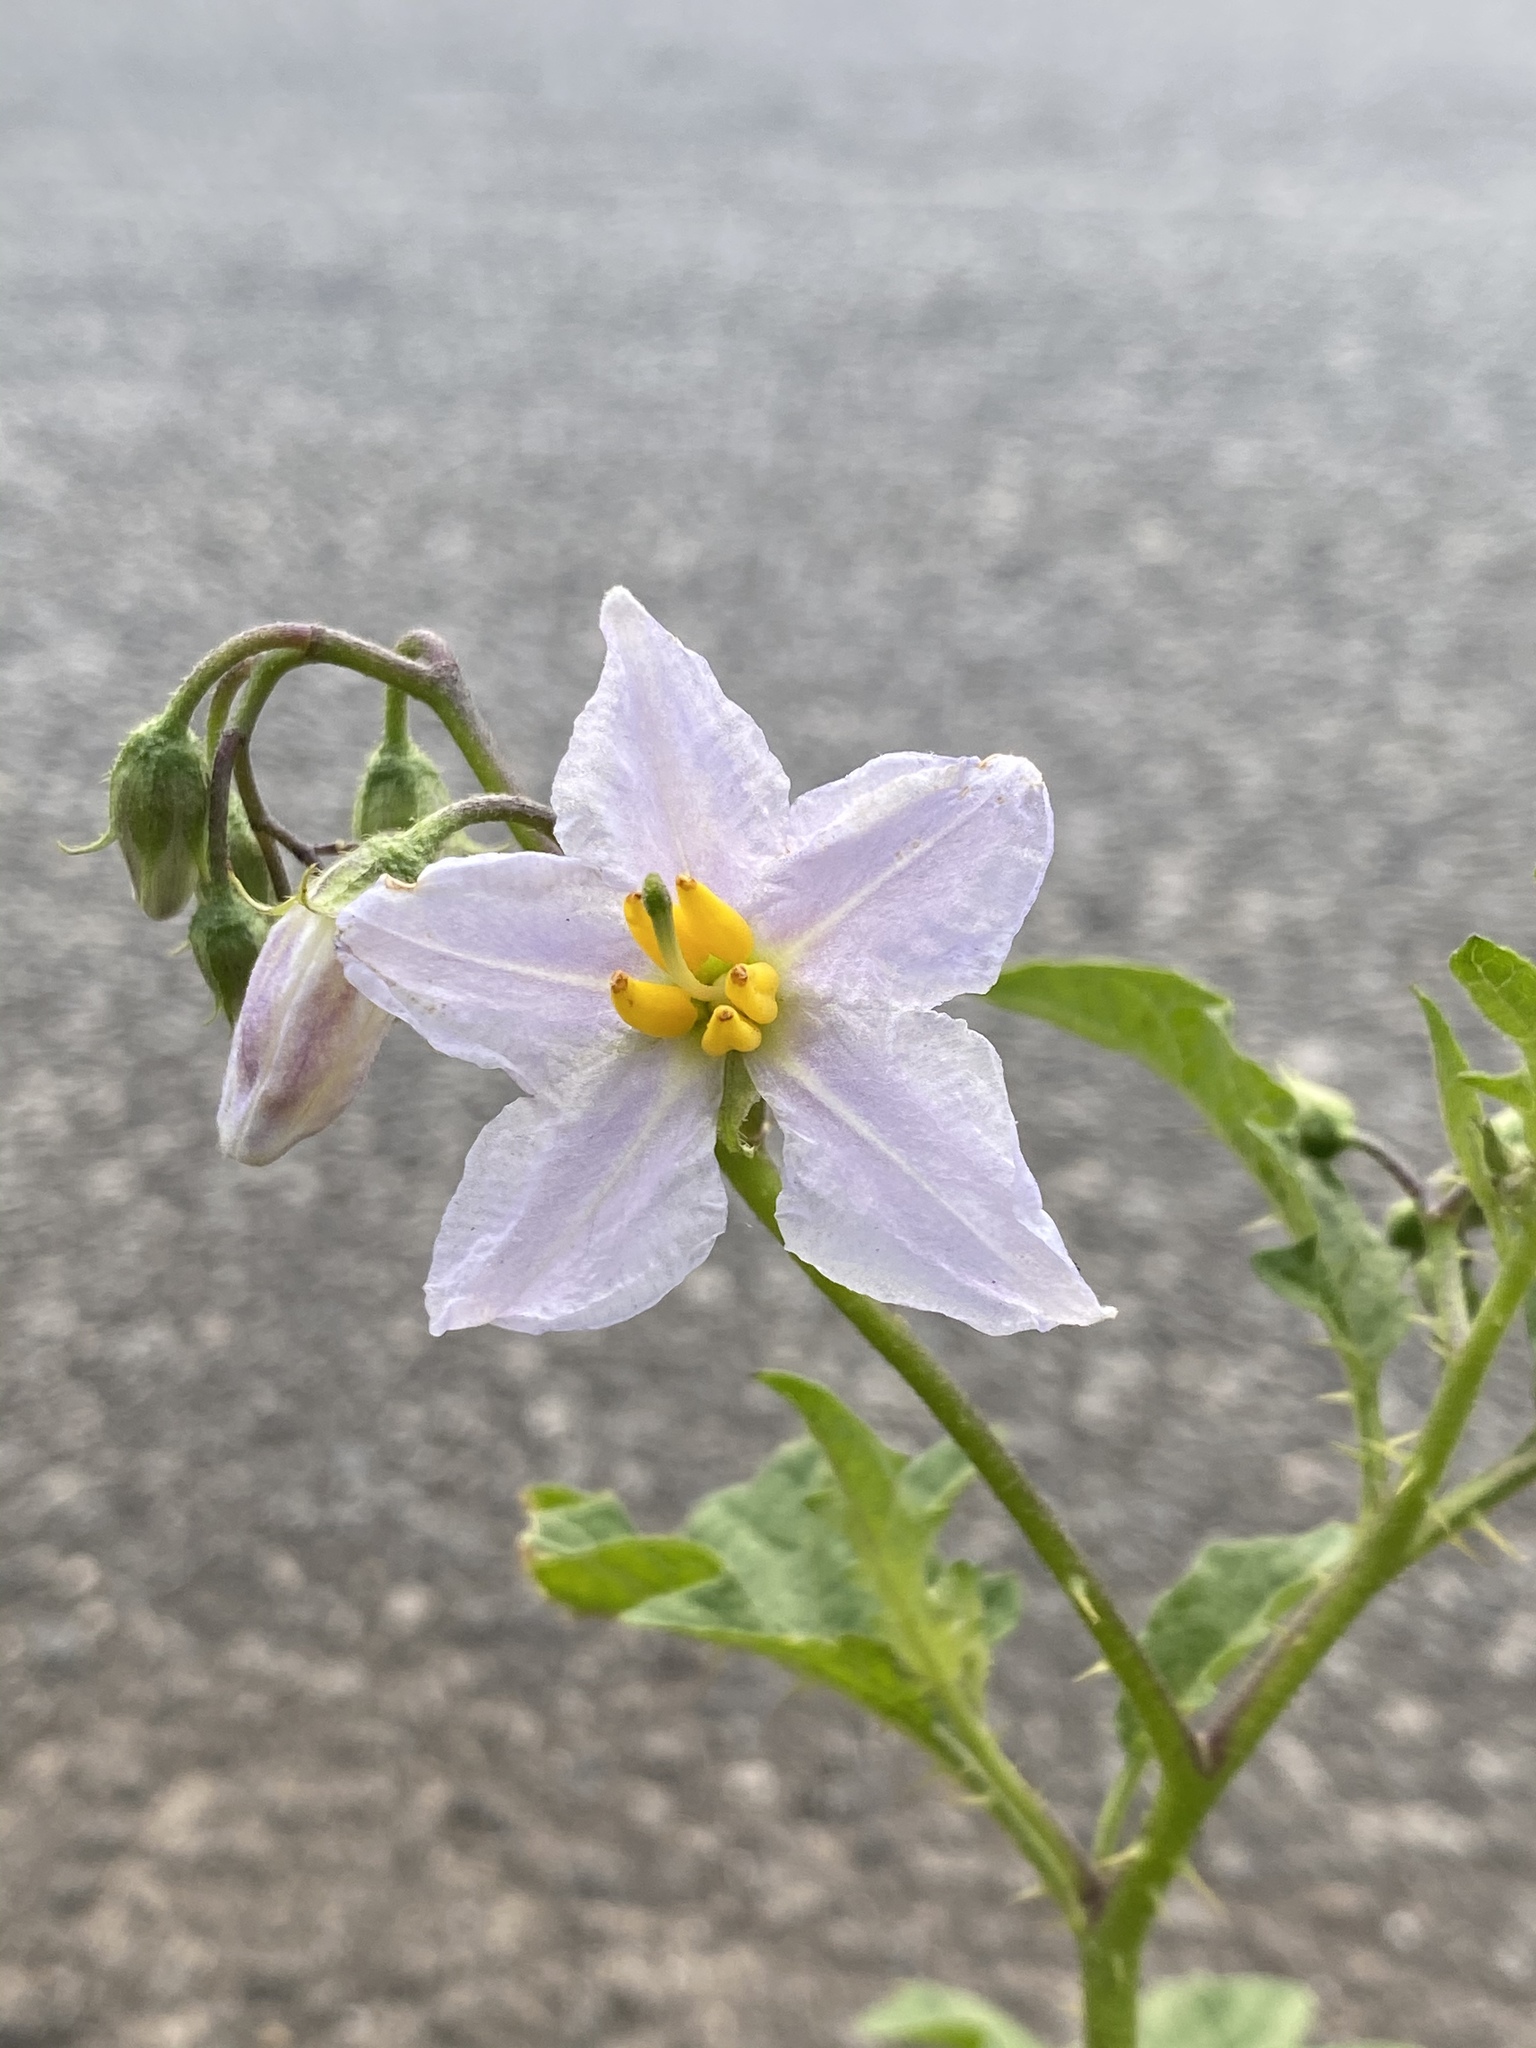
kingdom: Plantae
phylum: Tracheophyta
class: Magnoliopsida
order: Solanales
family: Solanaceae
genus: Solanum
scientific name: Solanum carolinense
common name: Horse-nettle
